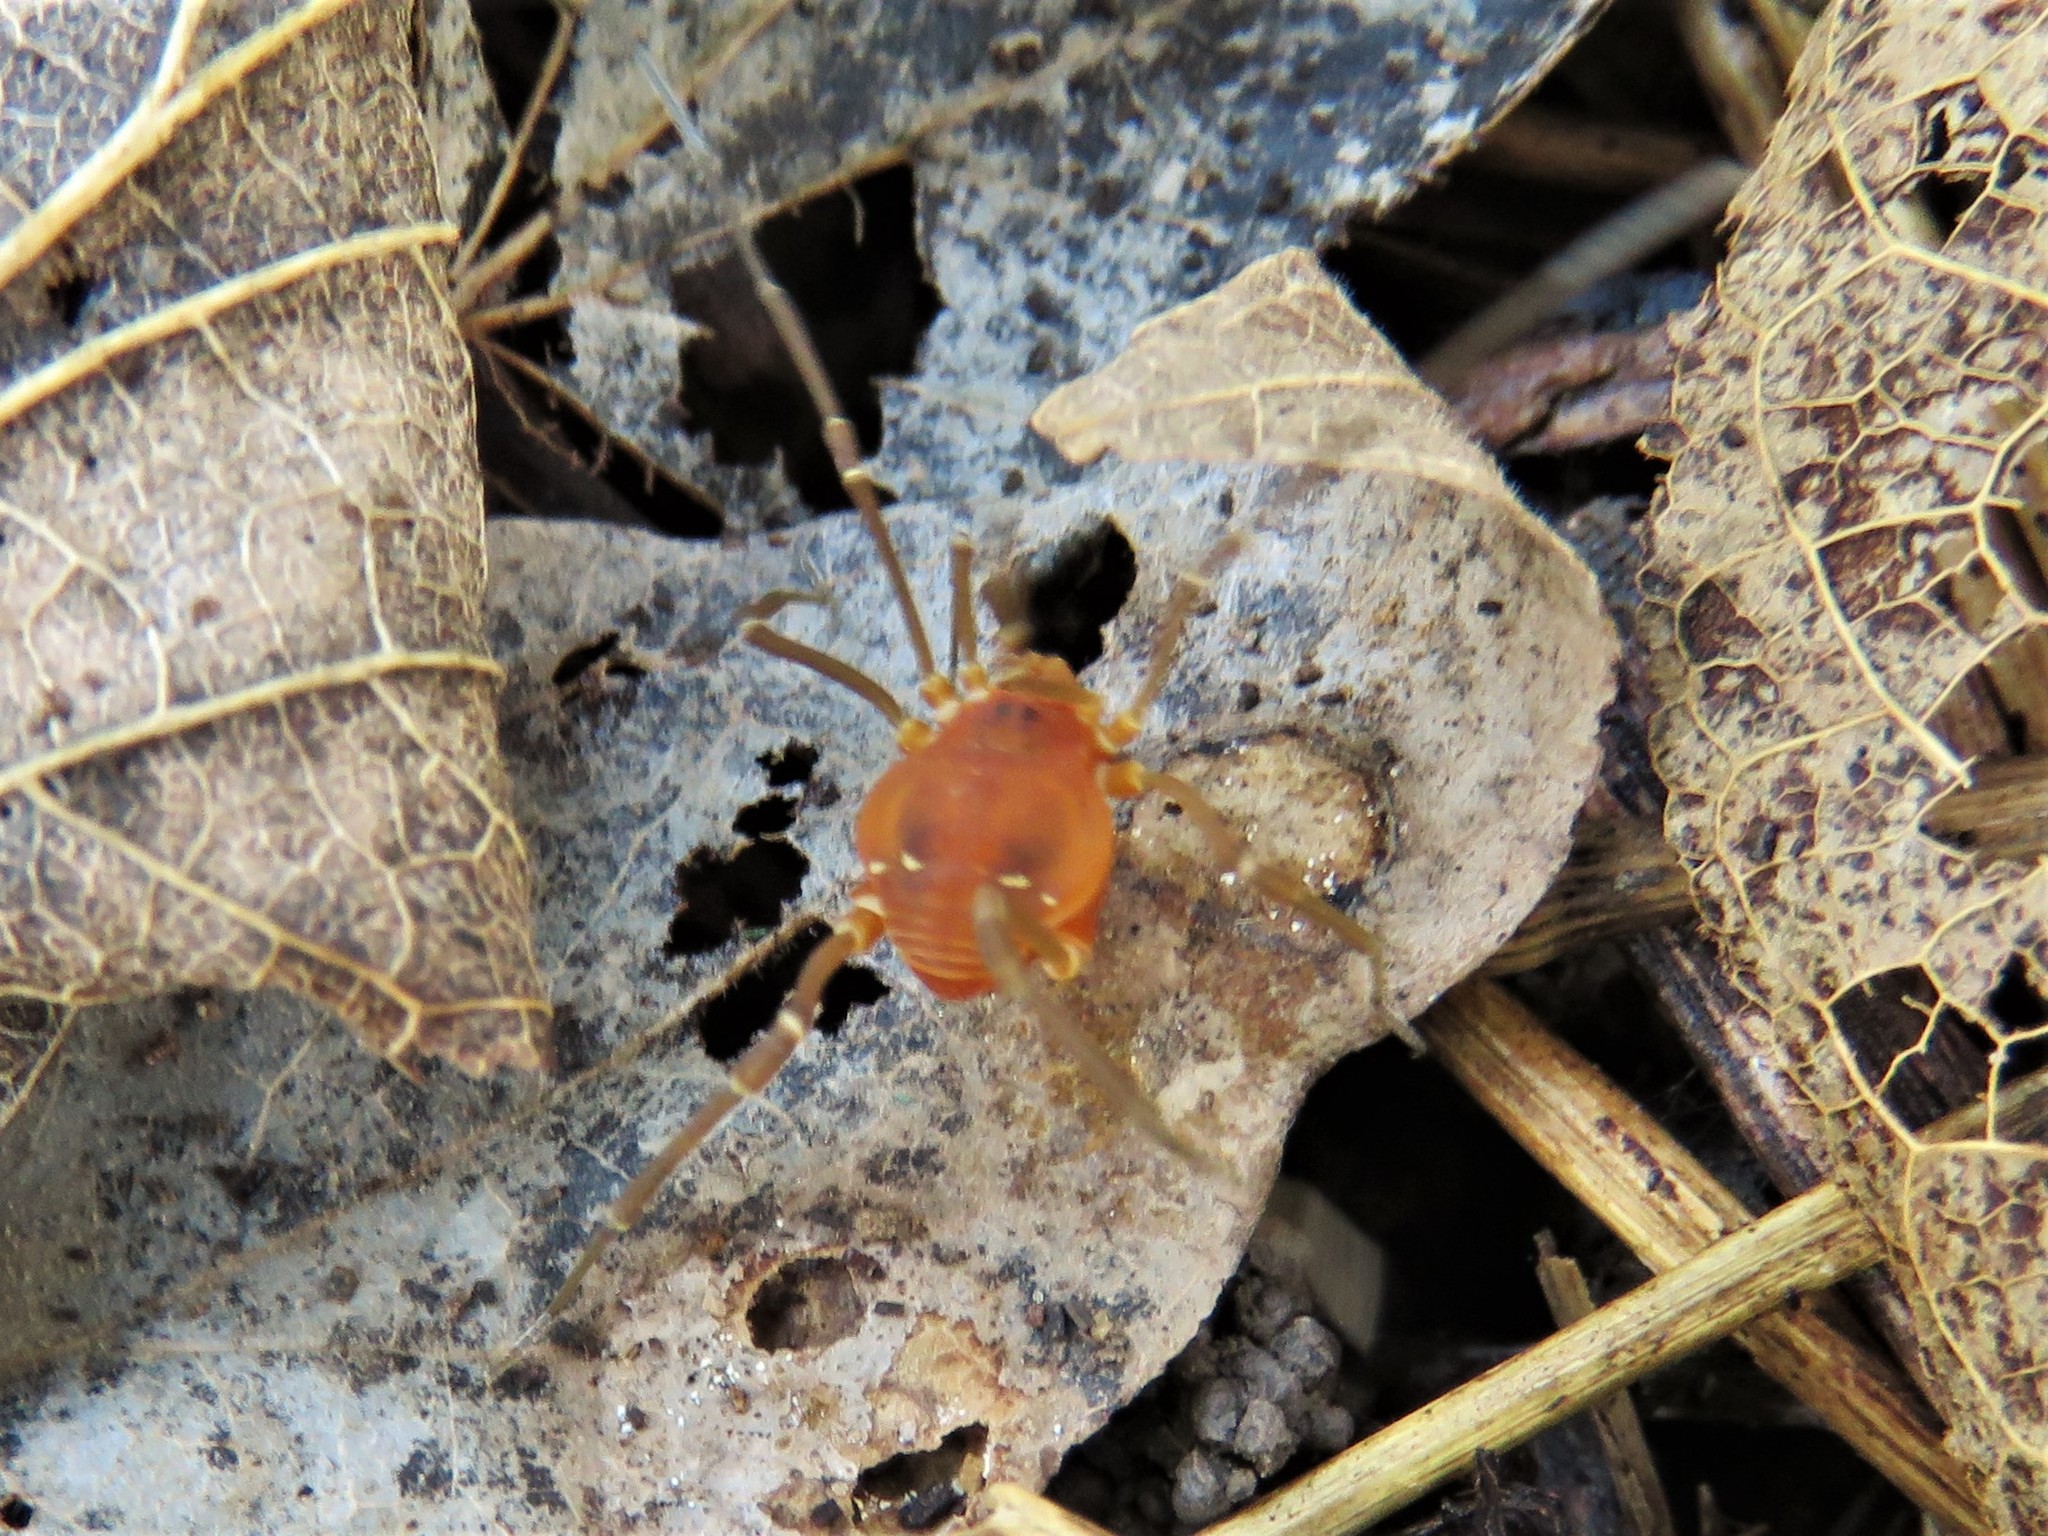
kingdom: Animalia
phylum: Arthropoda
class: Arachnida
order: Opiliones
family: Cosmetidae
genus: Libitioides
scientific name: Libitioides sayi
